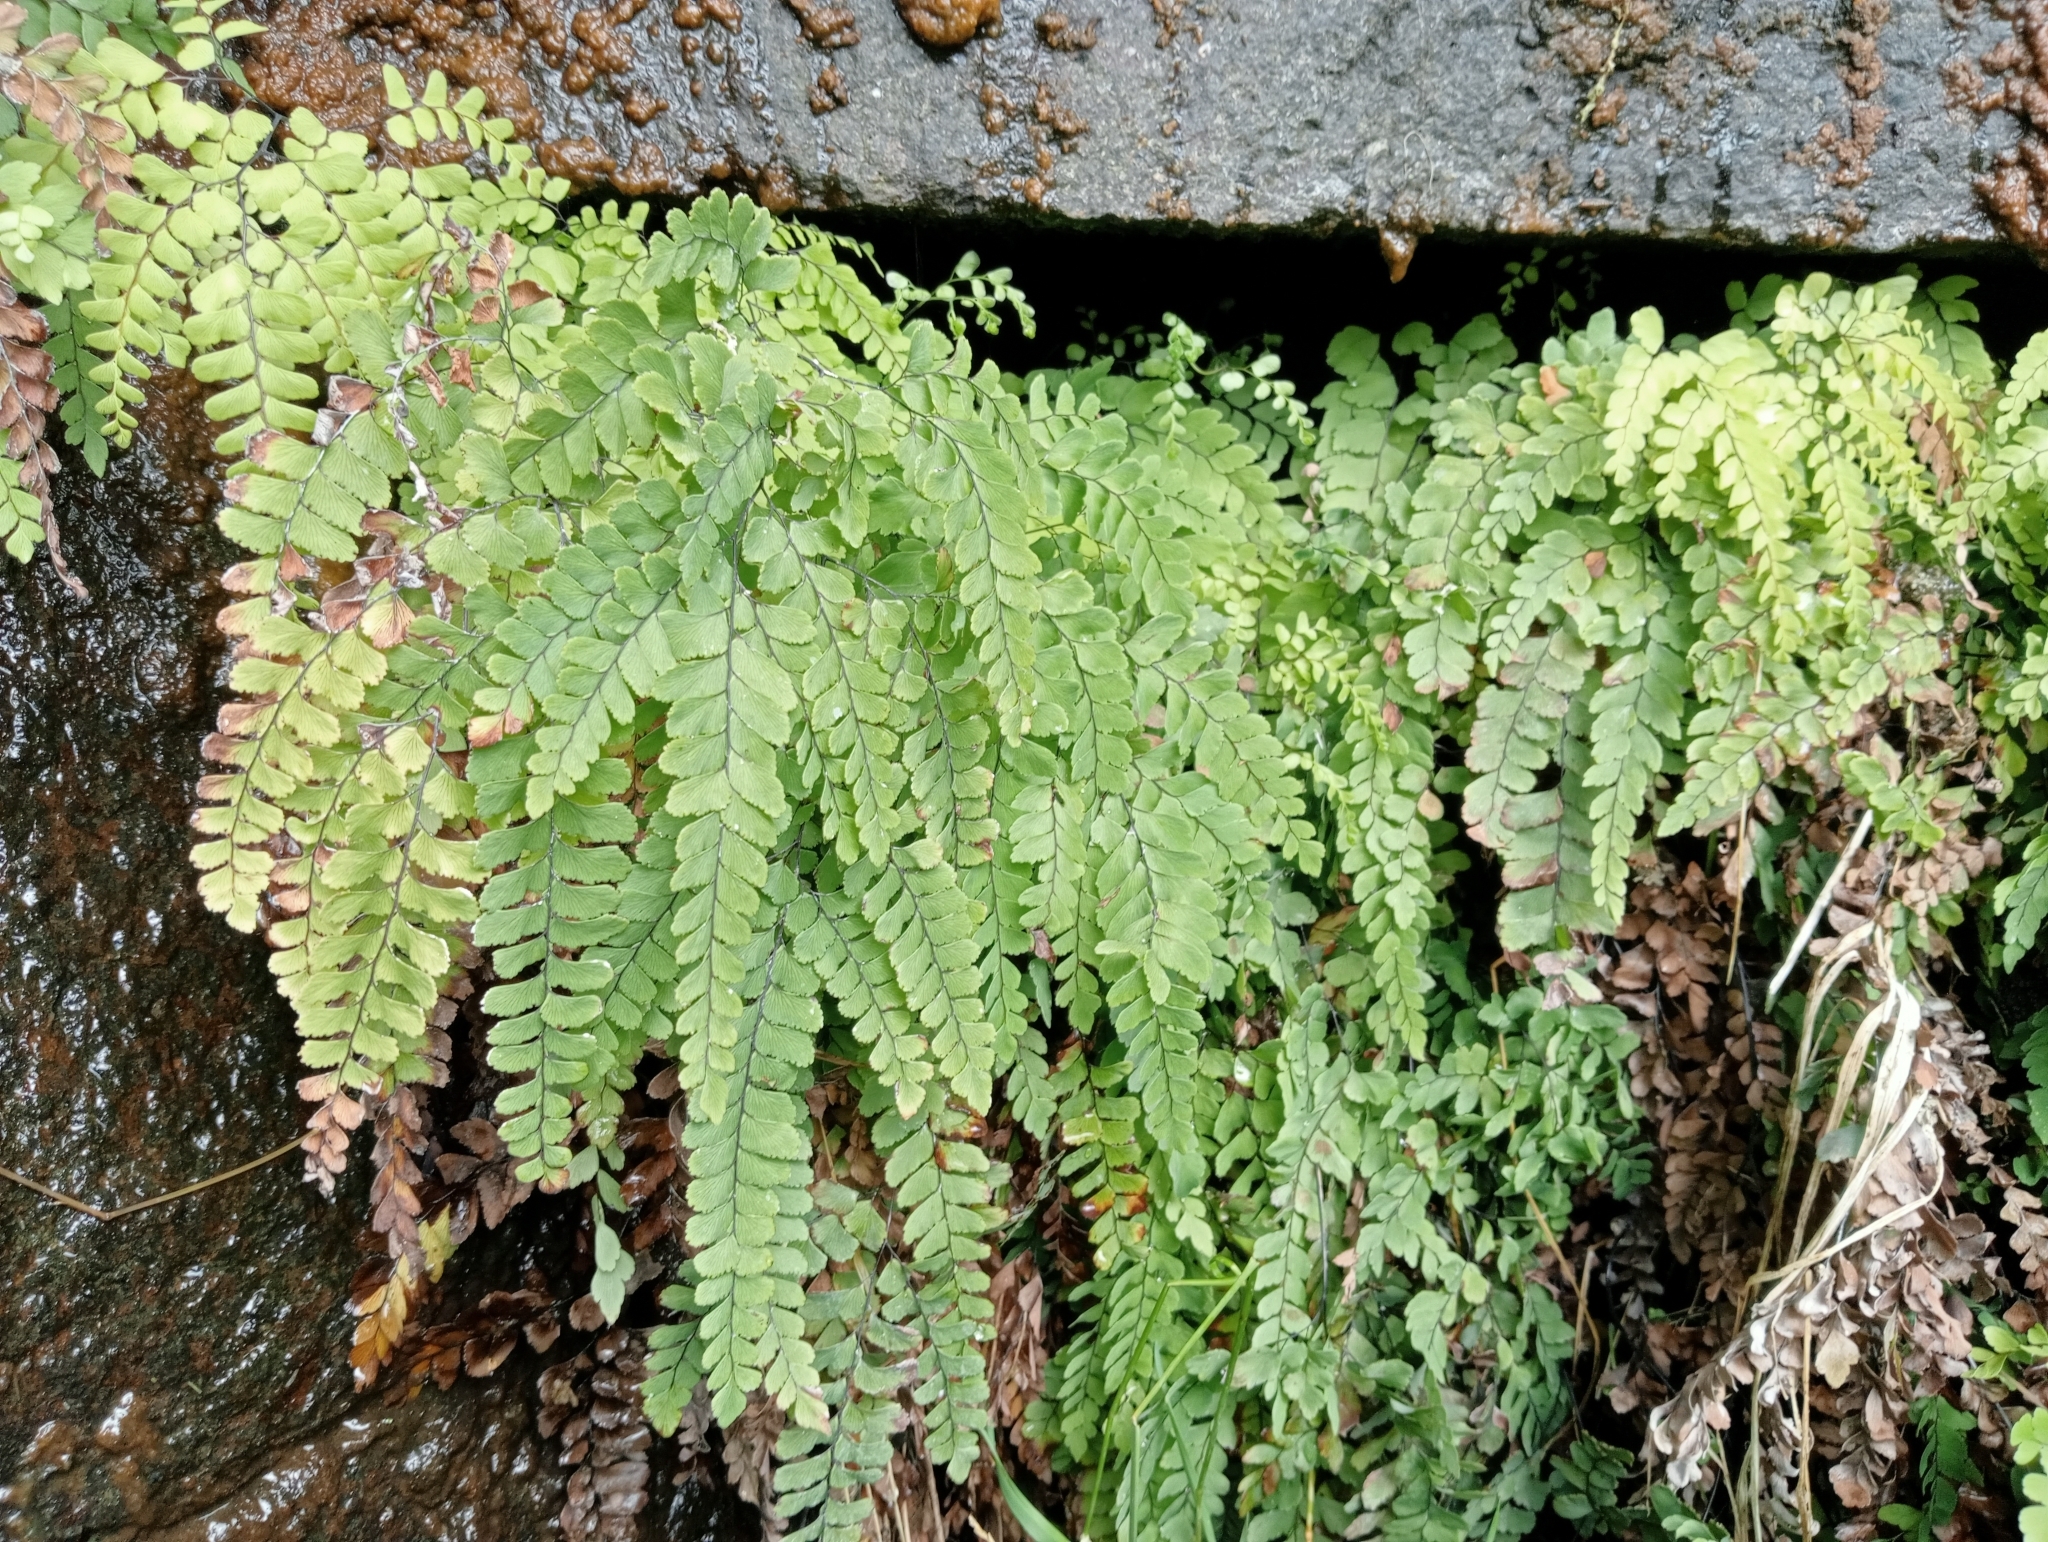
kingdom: Plantae
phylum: Tracheophyta
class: Polypodiopsida
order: Polypodiales
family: Pteridaceae
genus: Adiantum
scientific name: Adiantum cunninghamii
